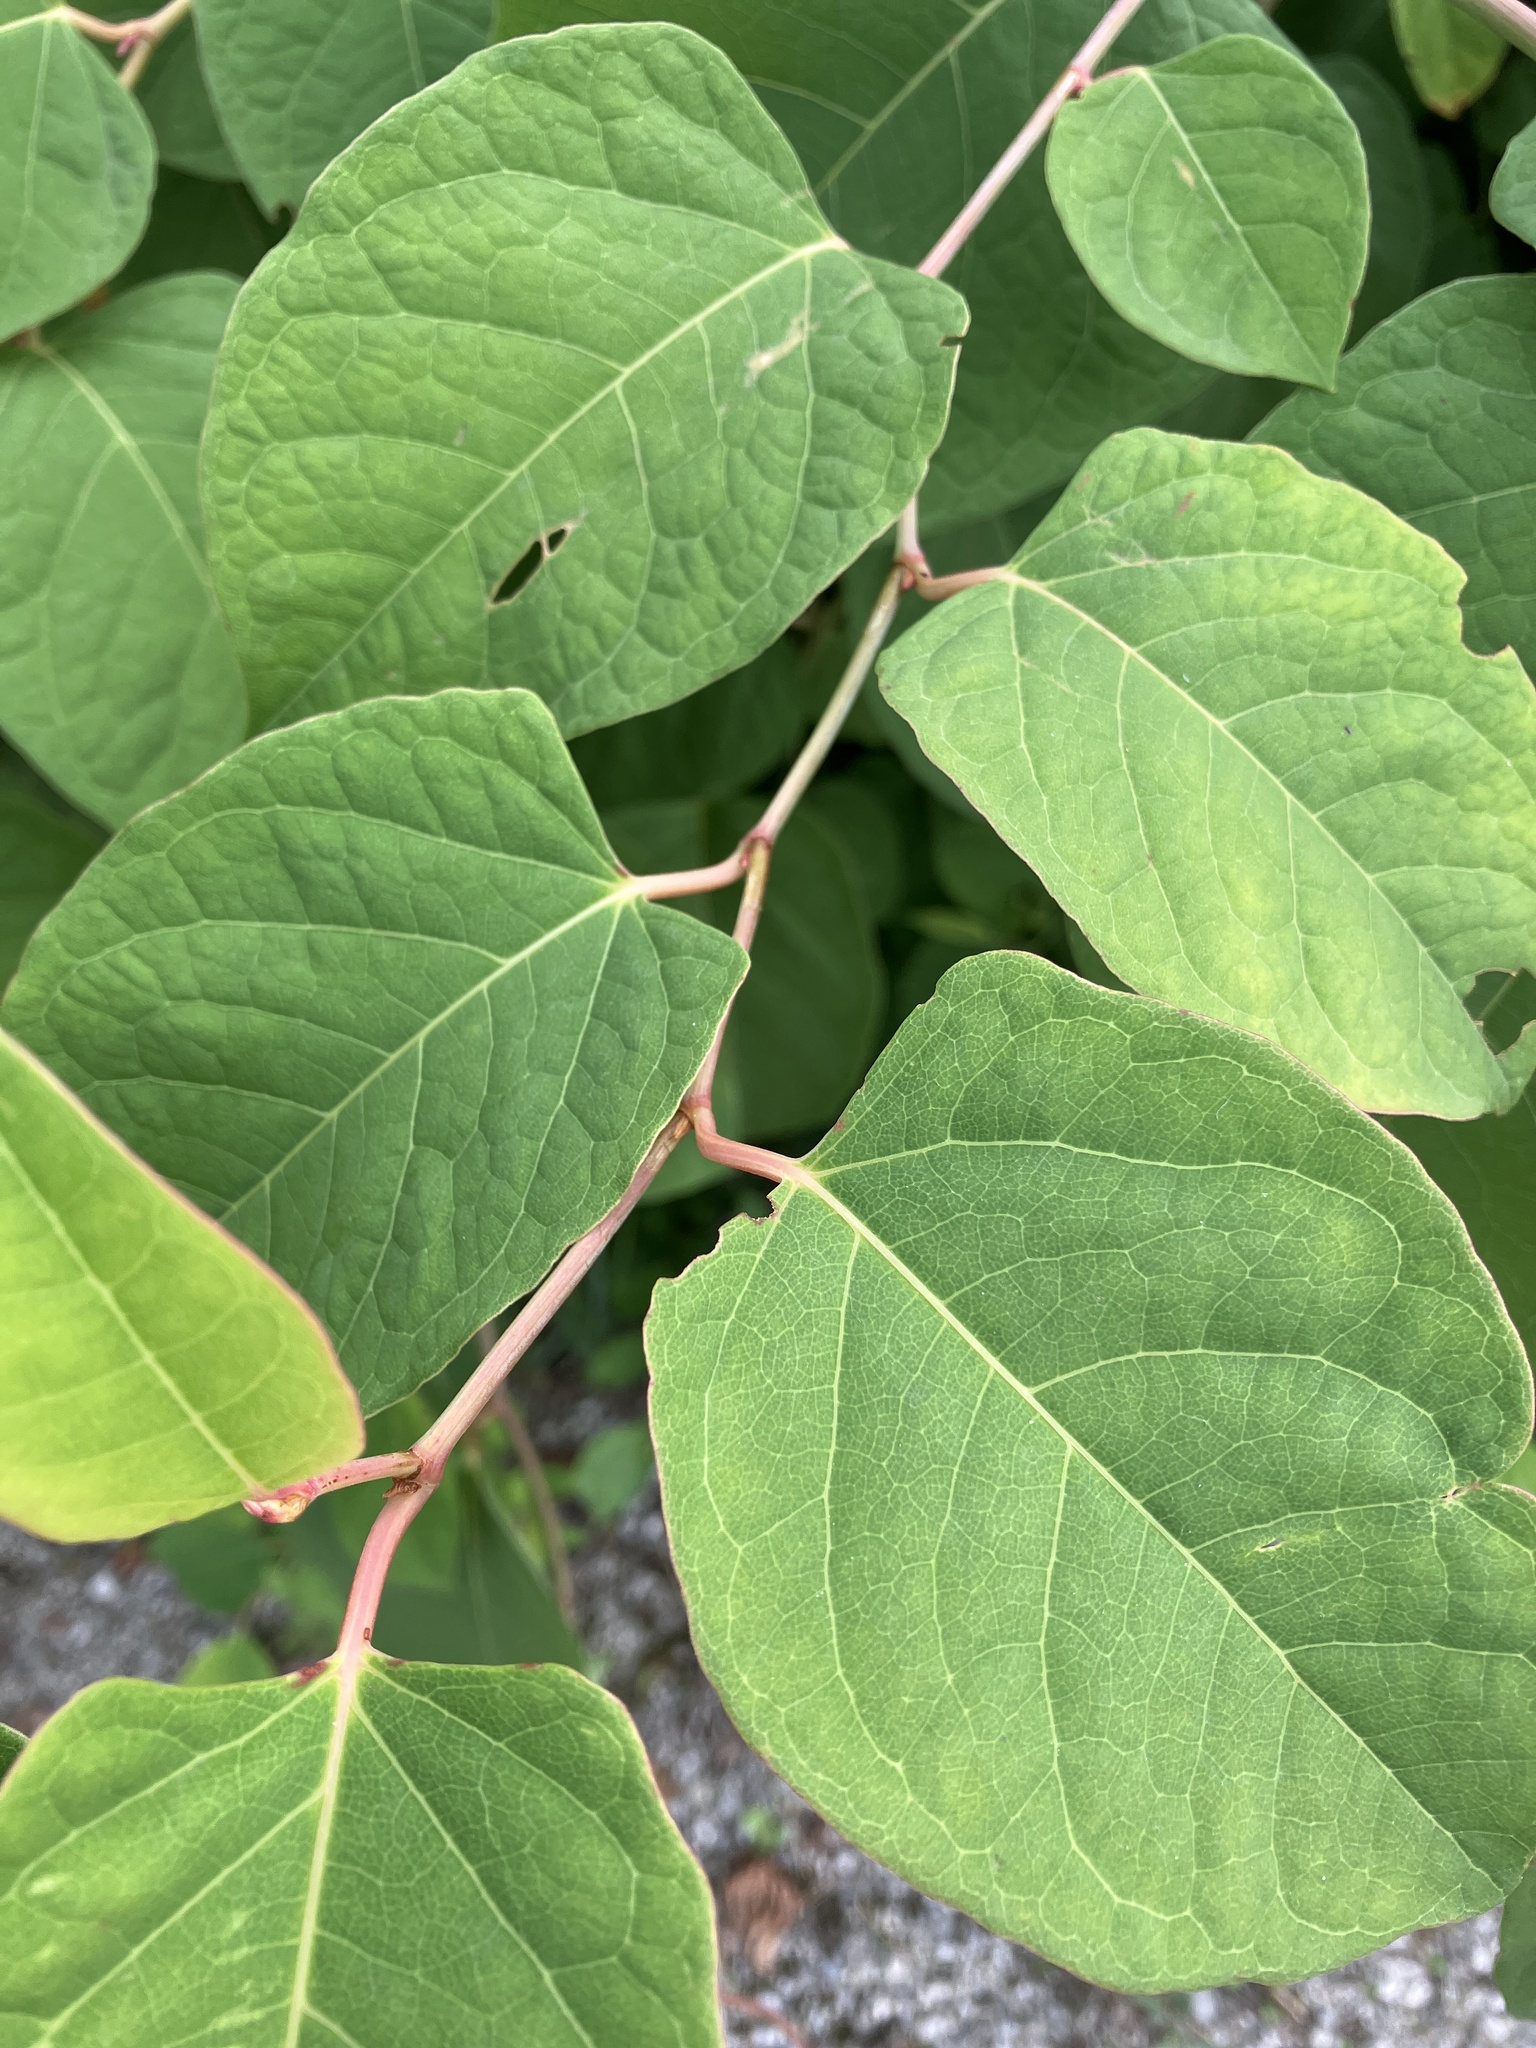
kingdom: Plantae
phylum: Tracheophyta
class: Magnoliopsida
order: Caryophyllales
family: Polygonaceae
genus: Reynoutria
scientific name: Reynoutria bohemica
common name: Bohemian knotweed
